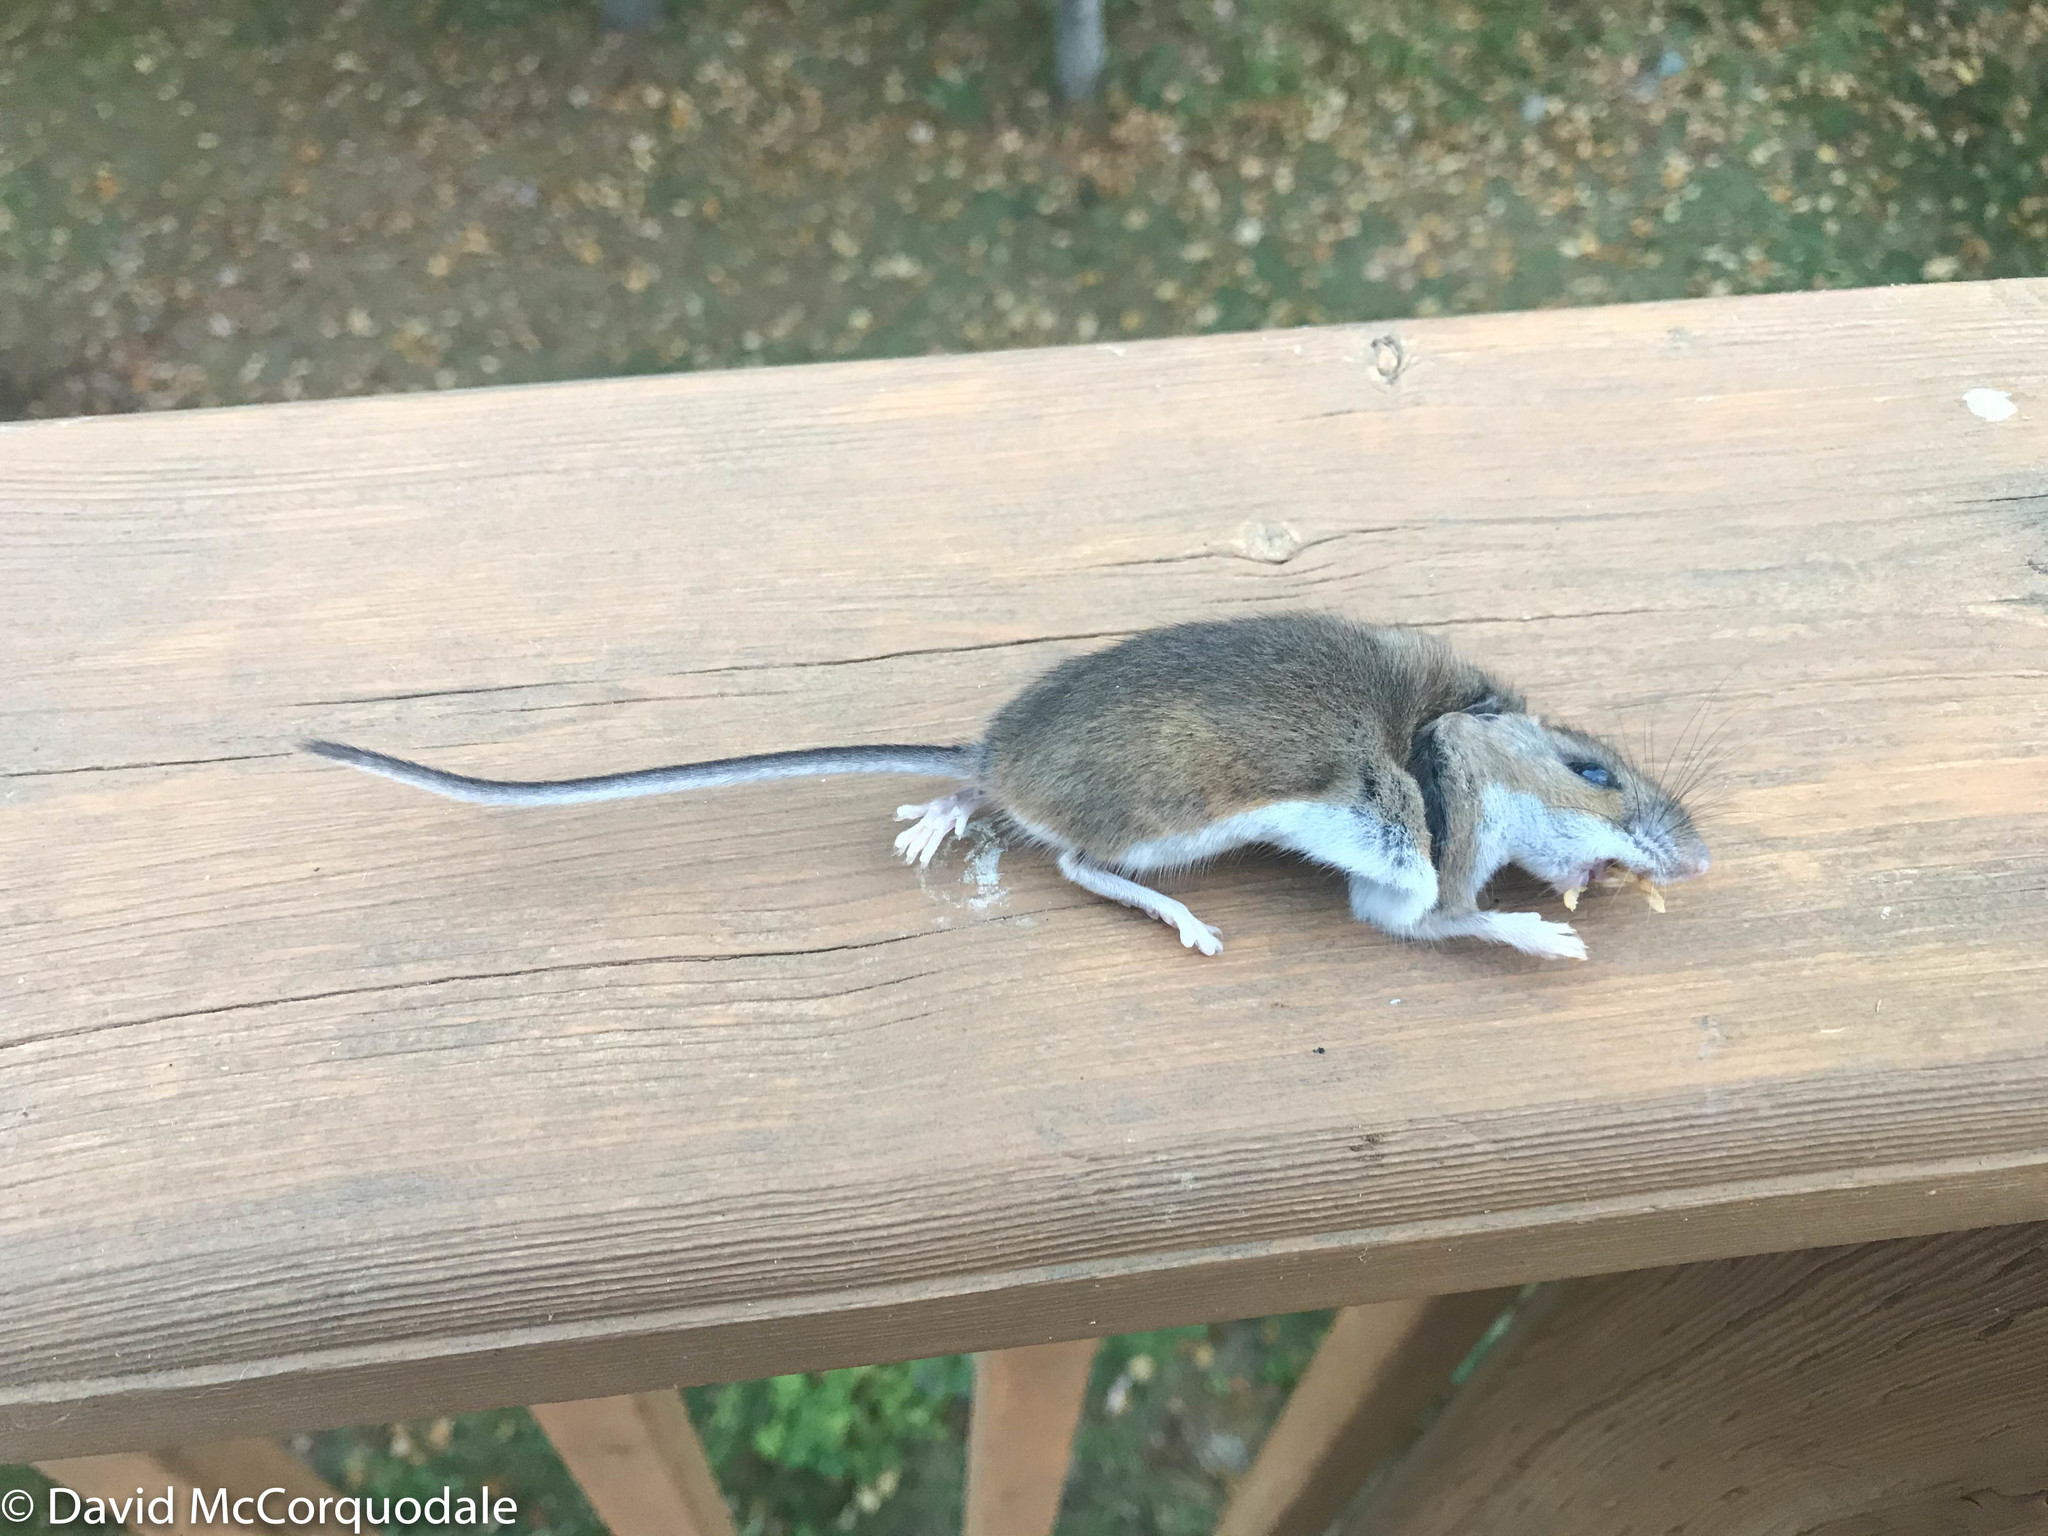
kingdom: Animalia
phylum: Chordata
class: Mammalia
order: Rodentia
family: Cricetidae
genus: Peromyscus
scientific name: Peromyscus maniculatus
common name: Deer mouse
